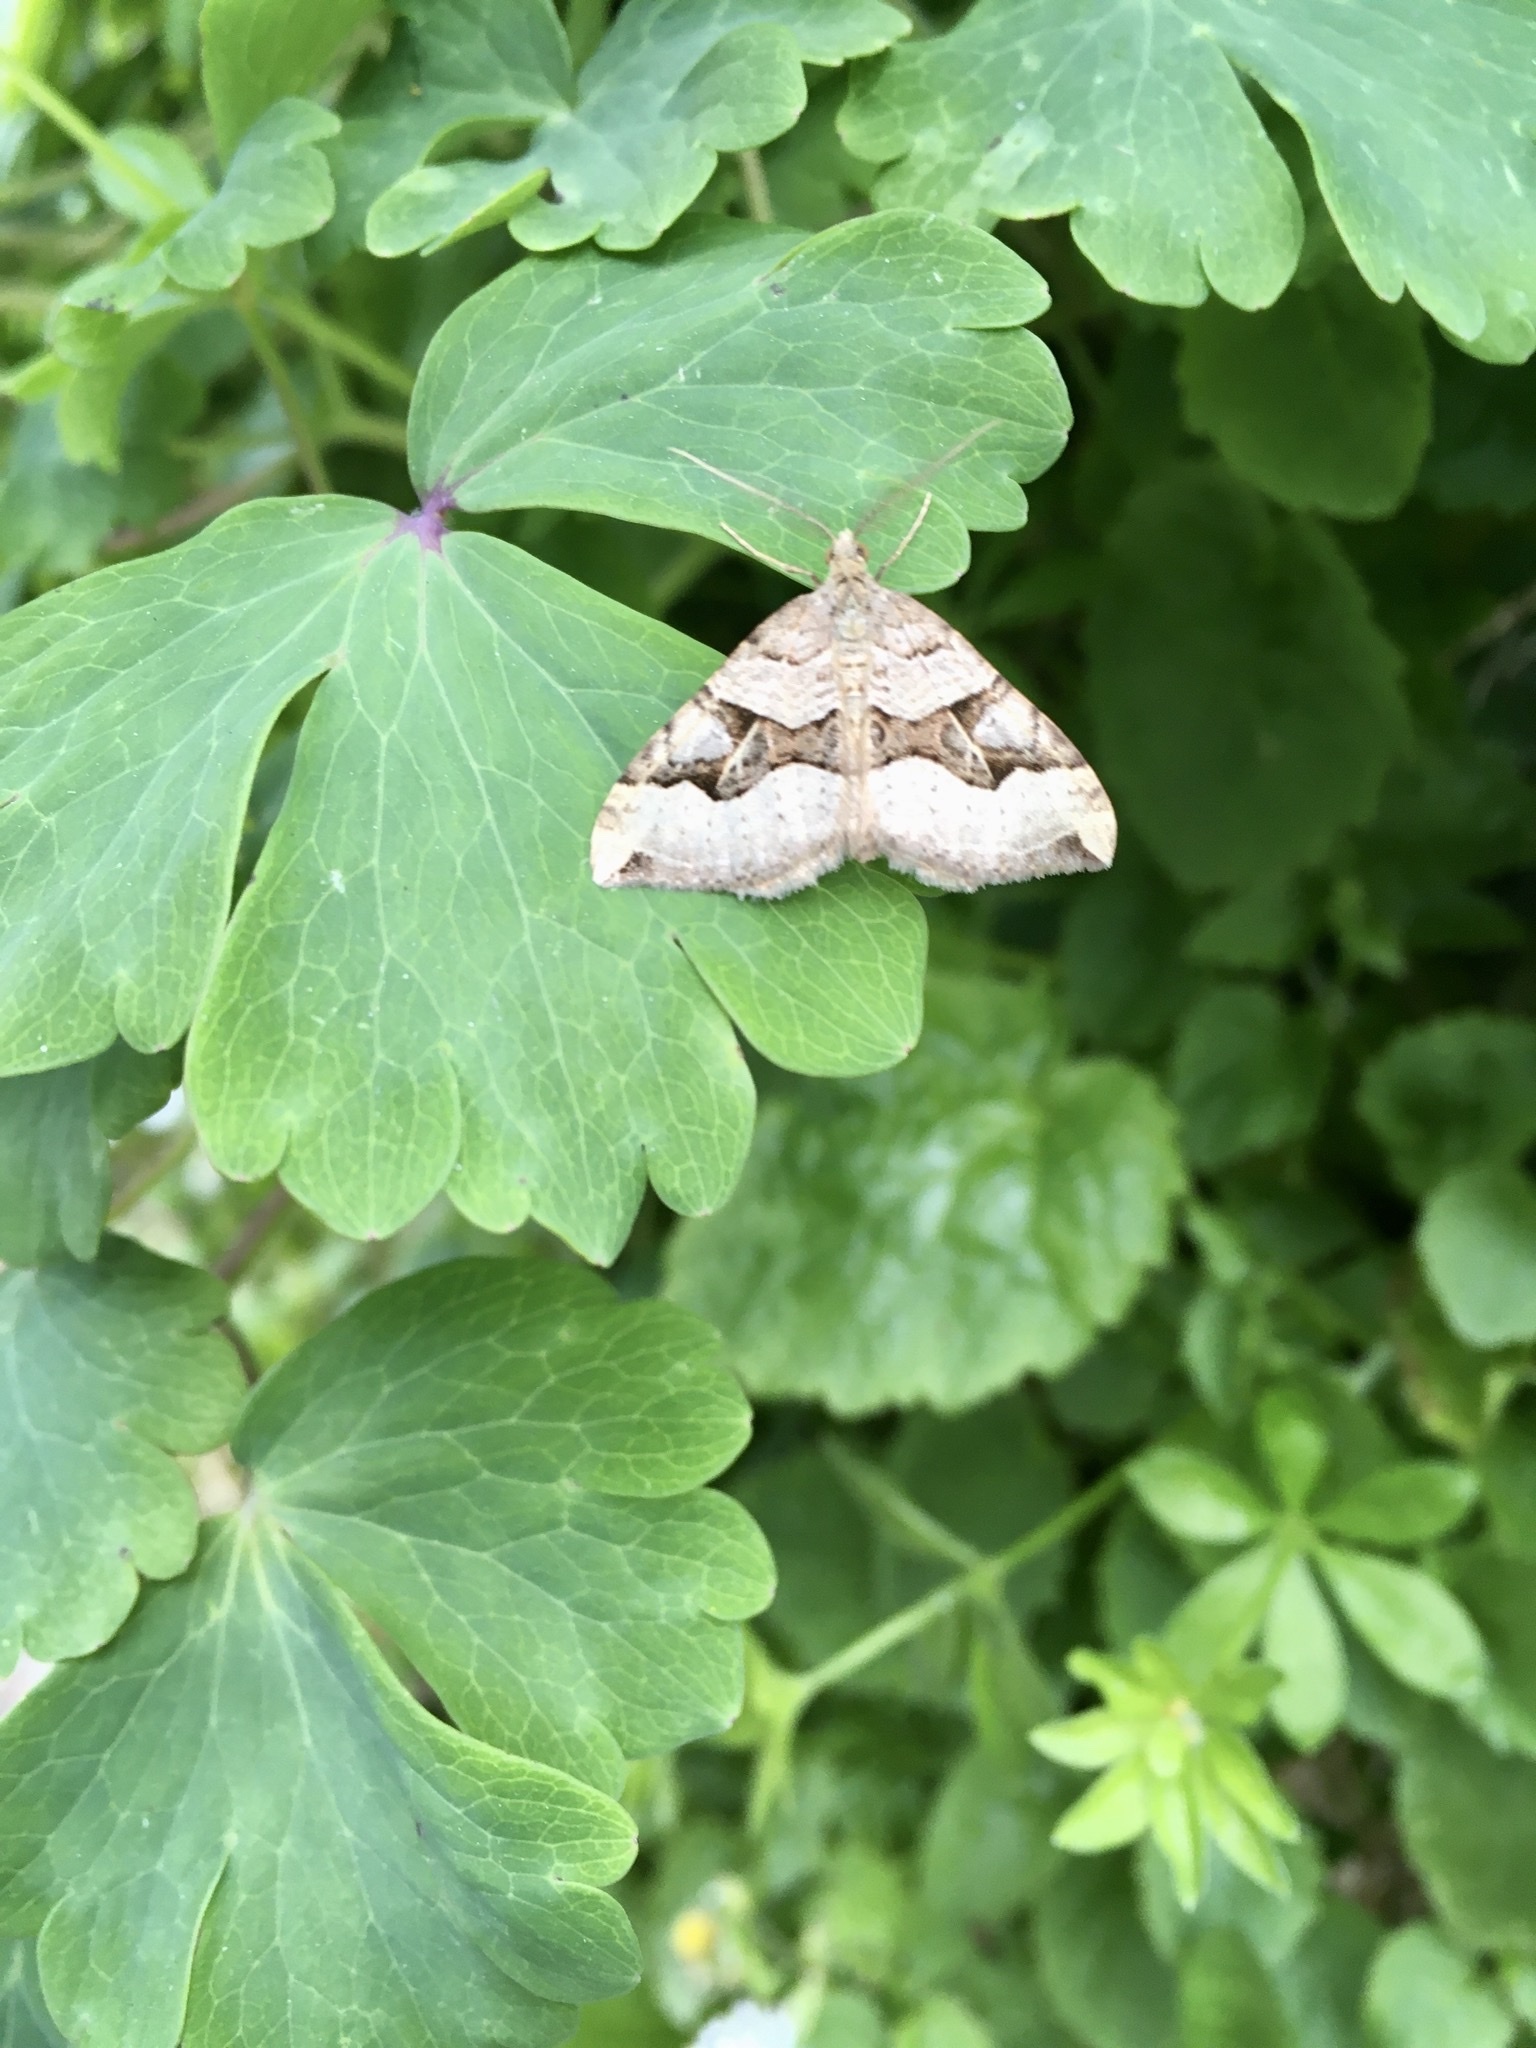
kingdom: Animalia
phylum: Arthropoda
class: Insecta
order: Lepidoptera
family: Geometridae
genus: Xanthorhoe
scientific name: Xanthorhoe semifissata
